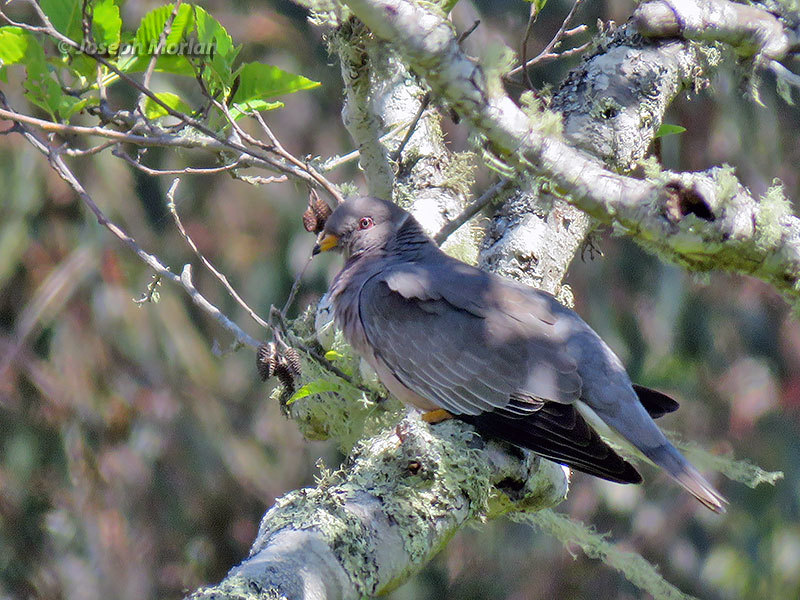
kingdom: Animalia
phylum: Chordata
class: Aves
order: Columbiformes
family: Columbidae
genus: Patagioenas
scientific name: Patagioenas fasciata
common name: Band-tailed pigeon
